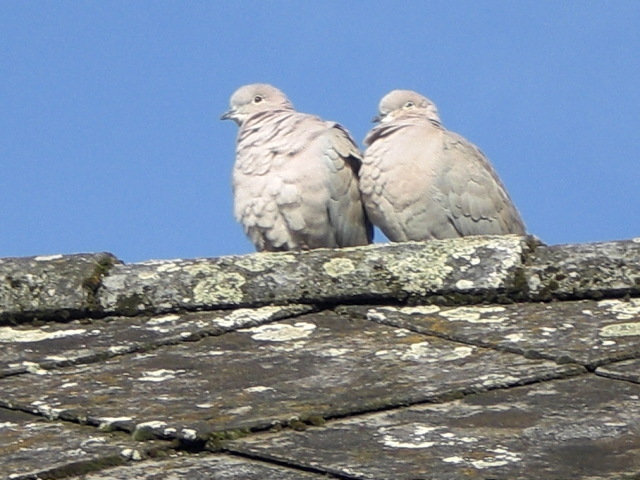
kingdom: Animalia
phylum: Chordata
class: Aves
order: Columbiformes
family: Columbidae
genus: Streptopelia
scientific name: Streptopelia decaocto
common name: Eurasian collared dove
